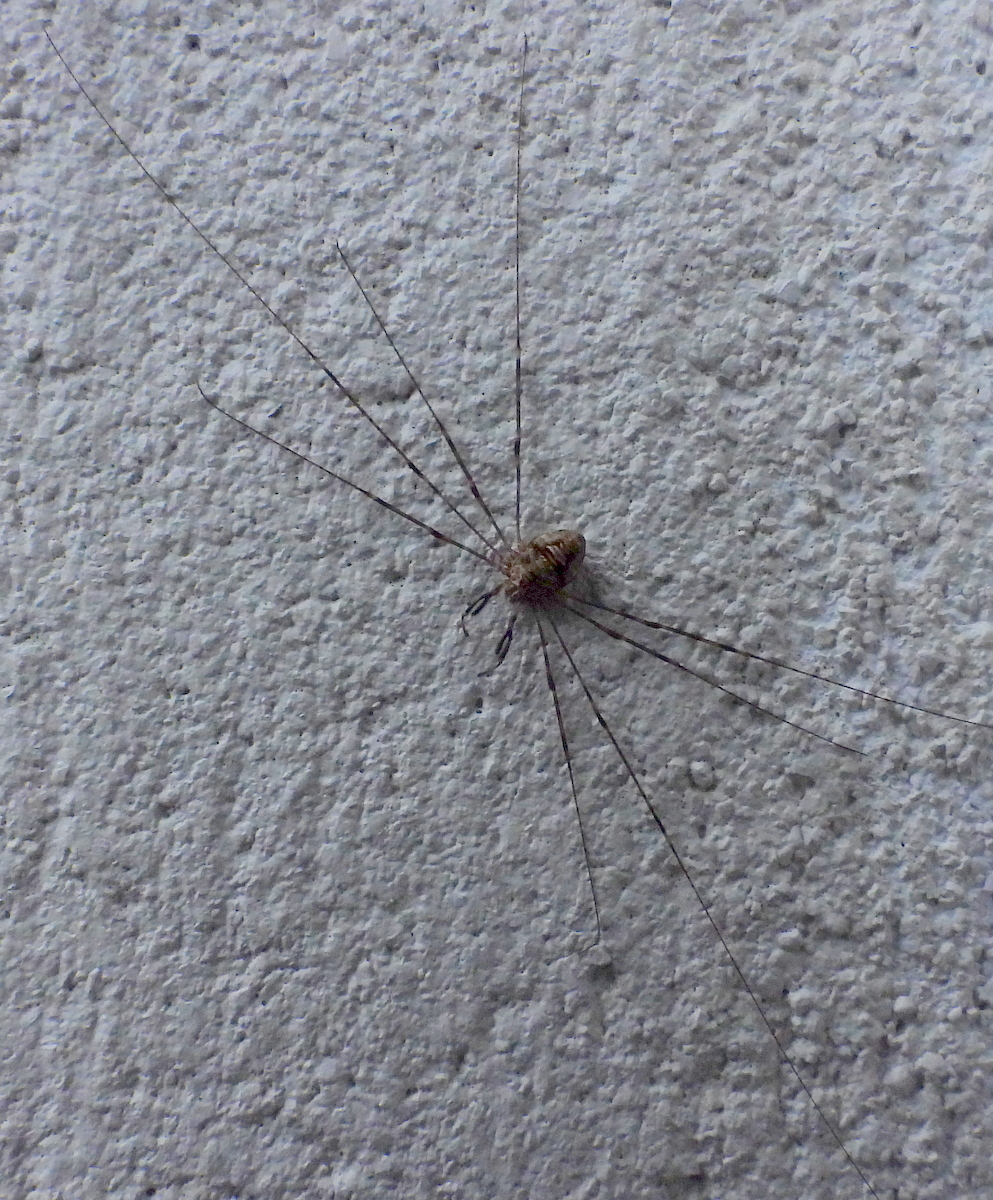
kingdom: Animalia
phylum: Arthropoda
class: Arachnida
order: Opiliones
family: Phalangiidae
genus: Dicranopalpus
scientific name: Dicranopalpus ramosus
